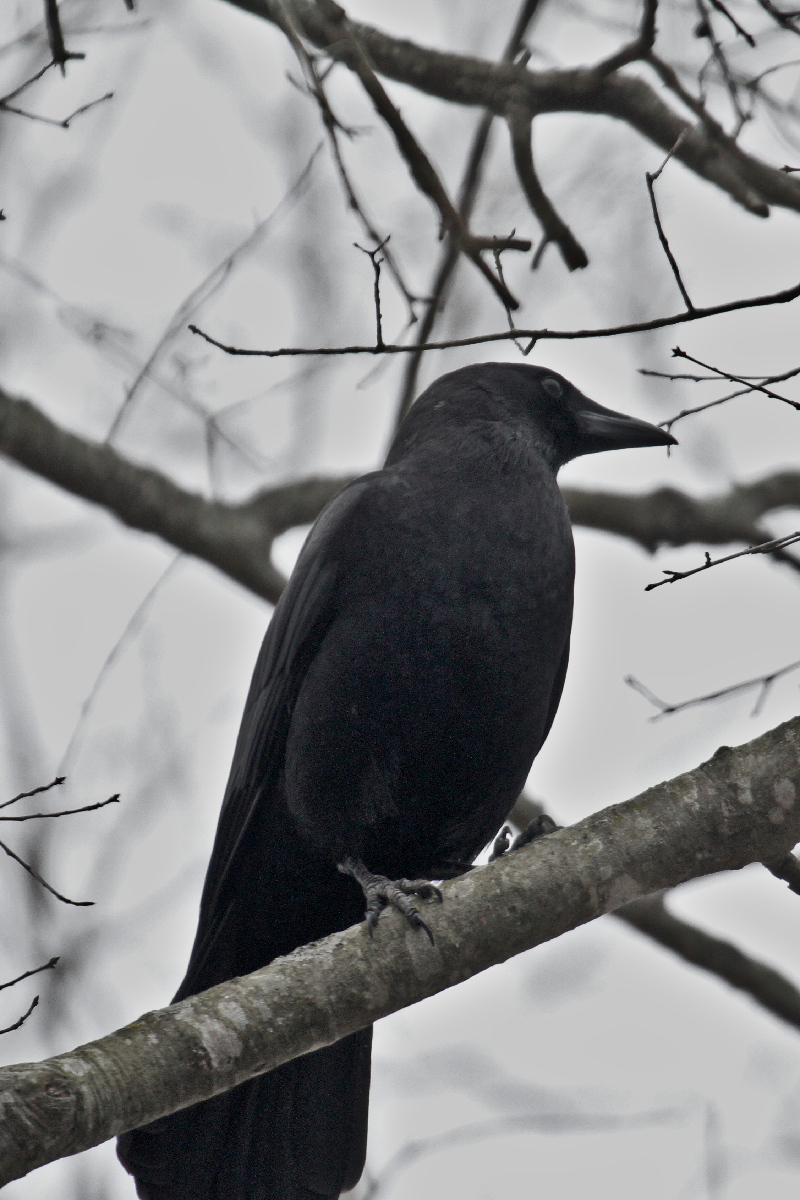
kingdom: Animalia
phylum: Chordata
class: Aves
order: Passeriformes
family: Corvidae
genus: Corvus
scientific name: Corvus brachyrhynchos
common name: American crow
